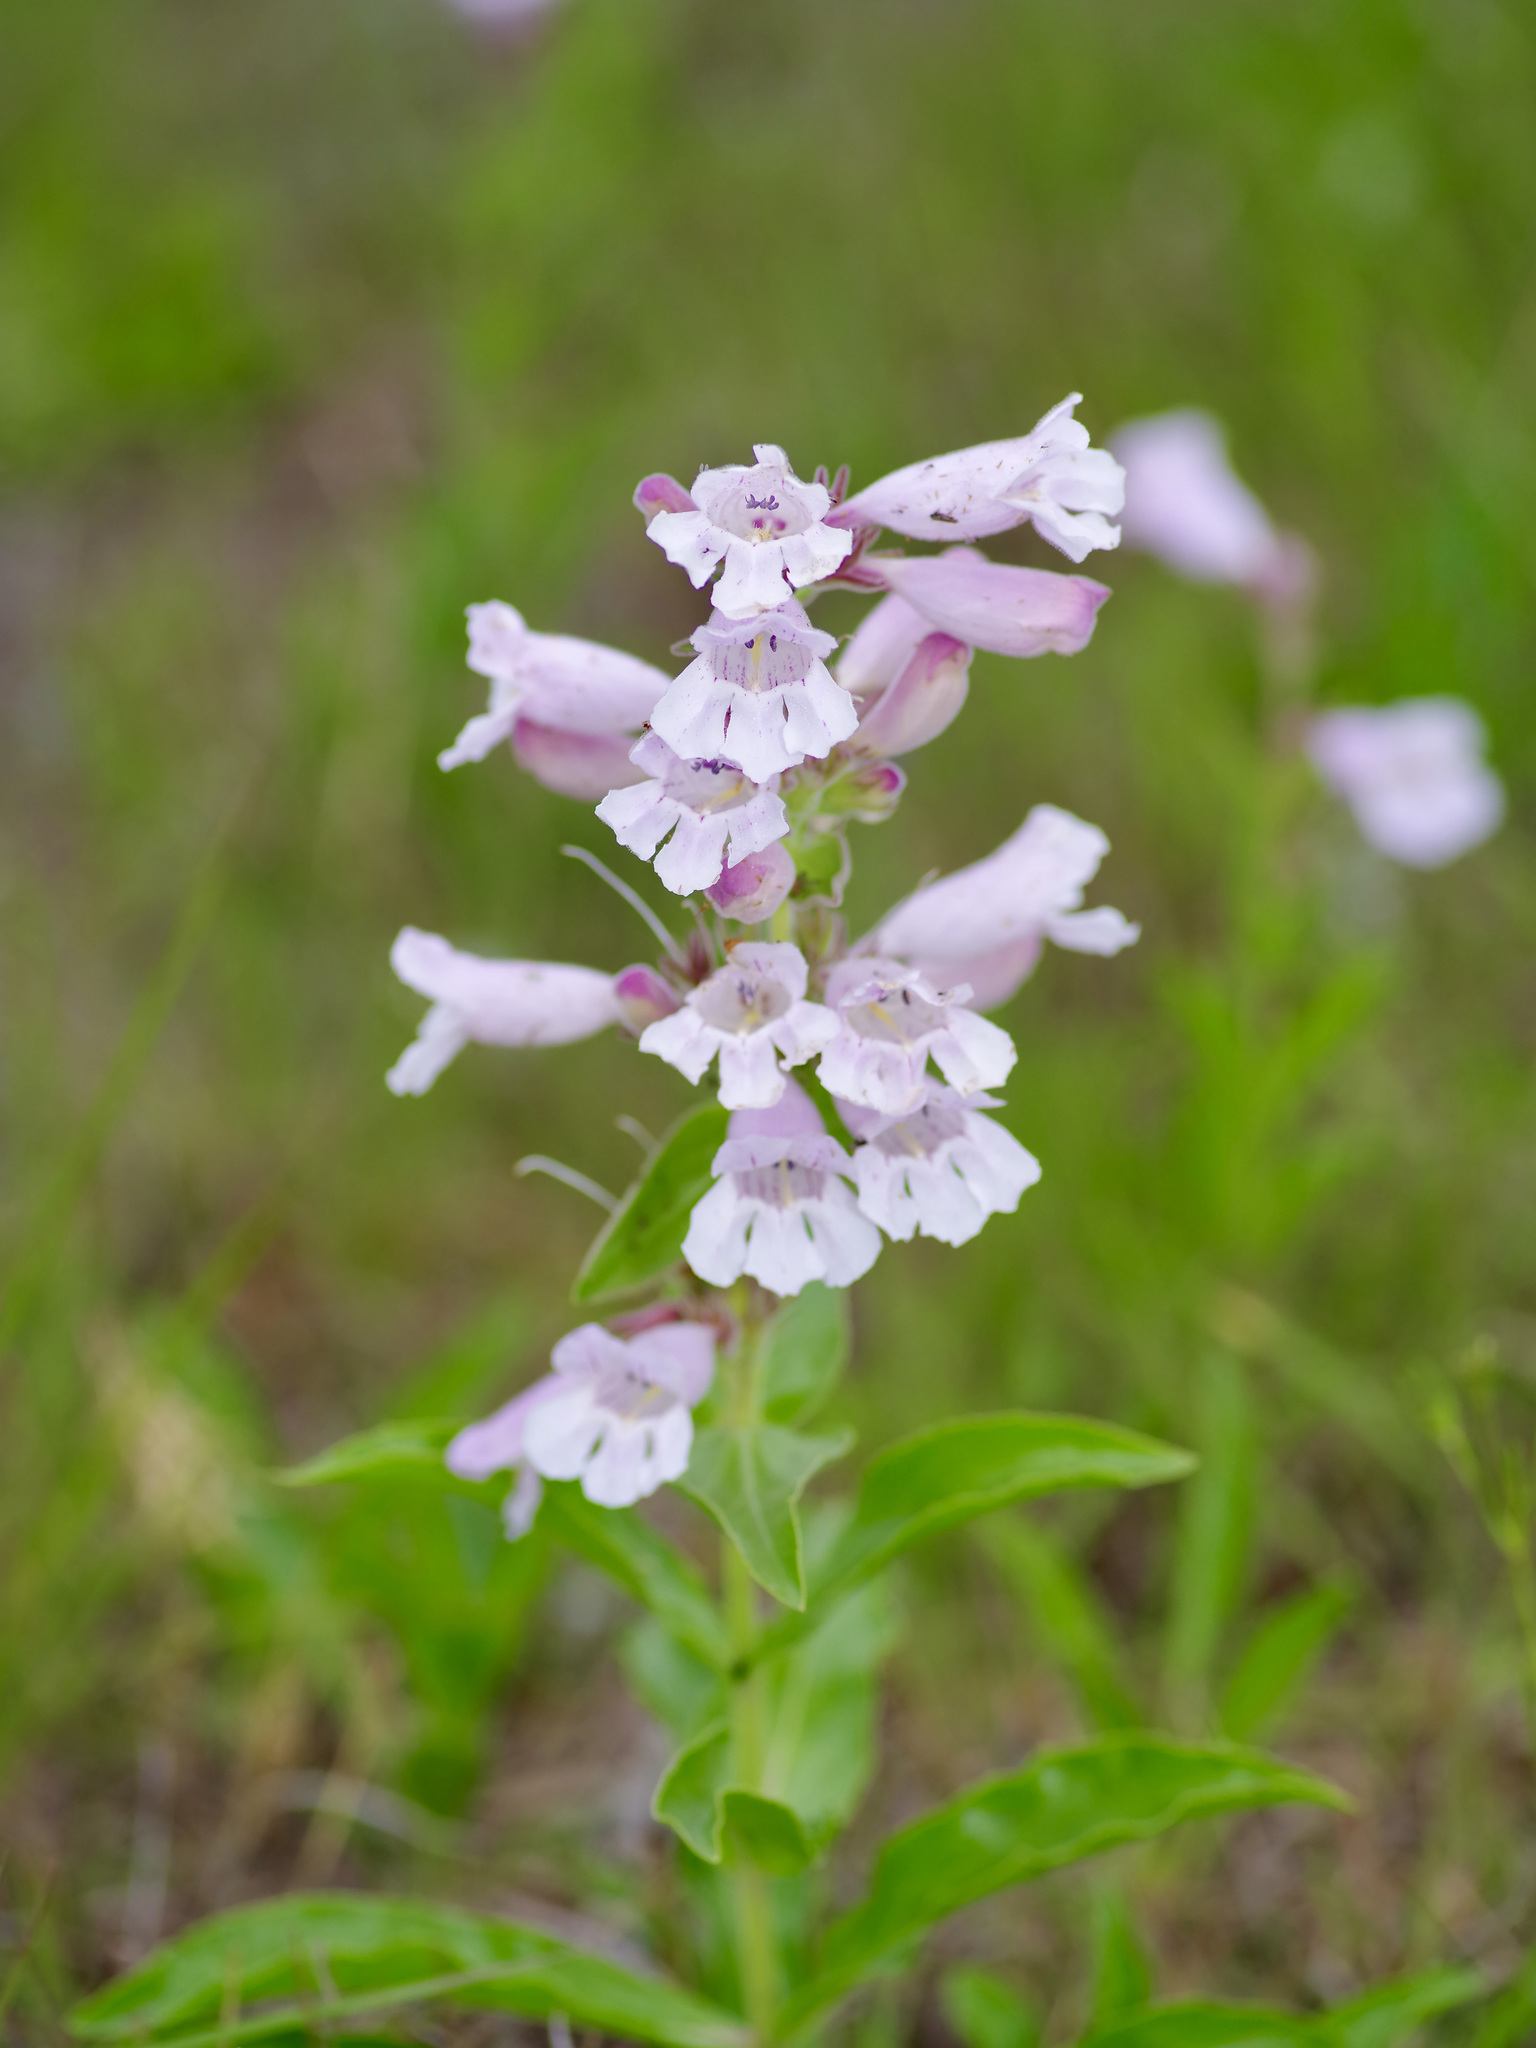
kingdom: Plantae
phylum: Tracheophyta
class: Magnoliopsida
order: Lamiales
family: Plantaginaceae
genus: Penstemon
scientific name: Penstemon cobaea
